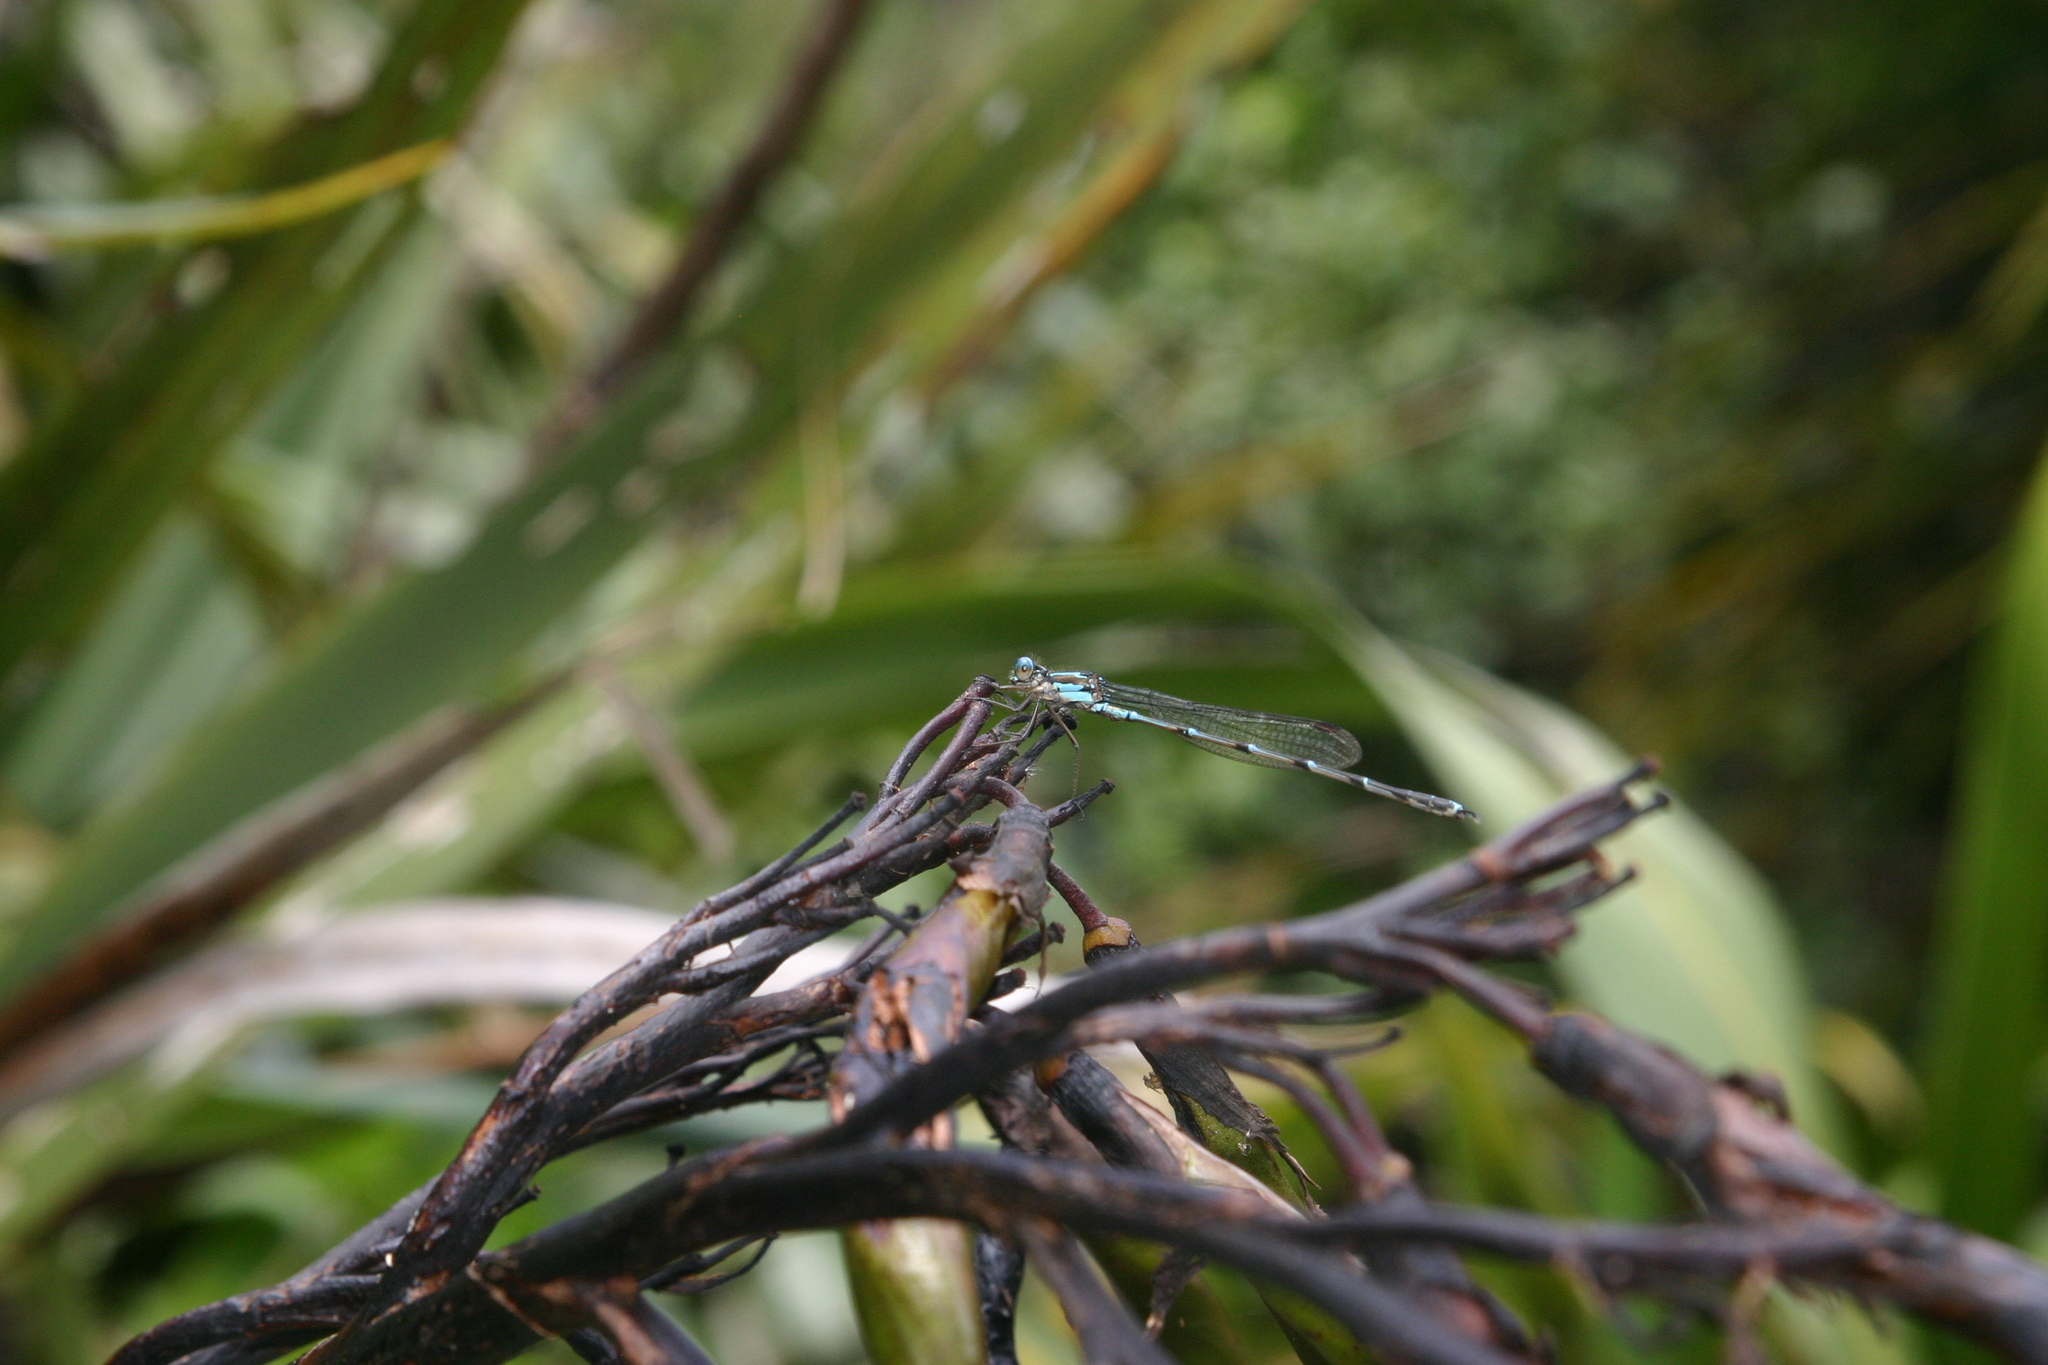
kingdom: Animalia
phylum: Arthropoda
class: Insecta
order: Odonata
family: Lestidae
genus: Austrolestes
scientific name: Austrolestes colensonis
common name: Blue damselfly
